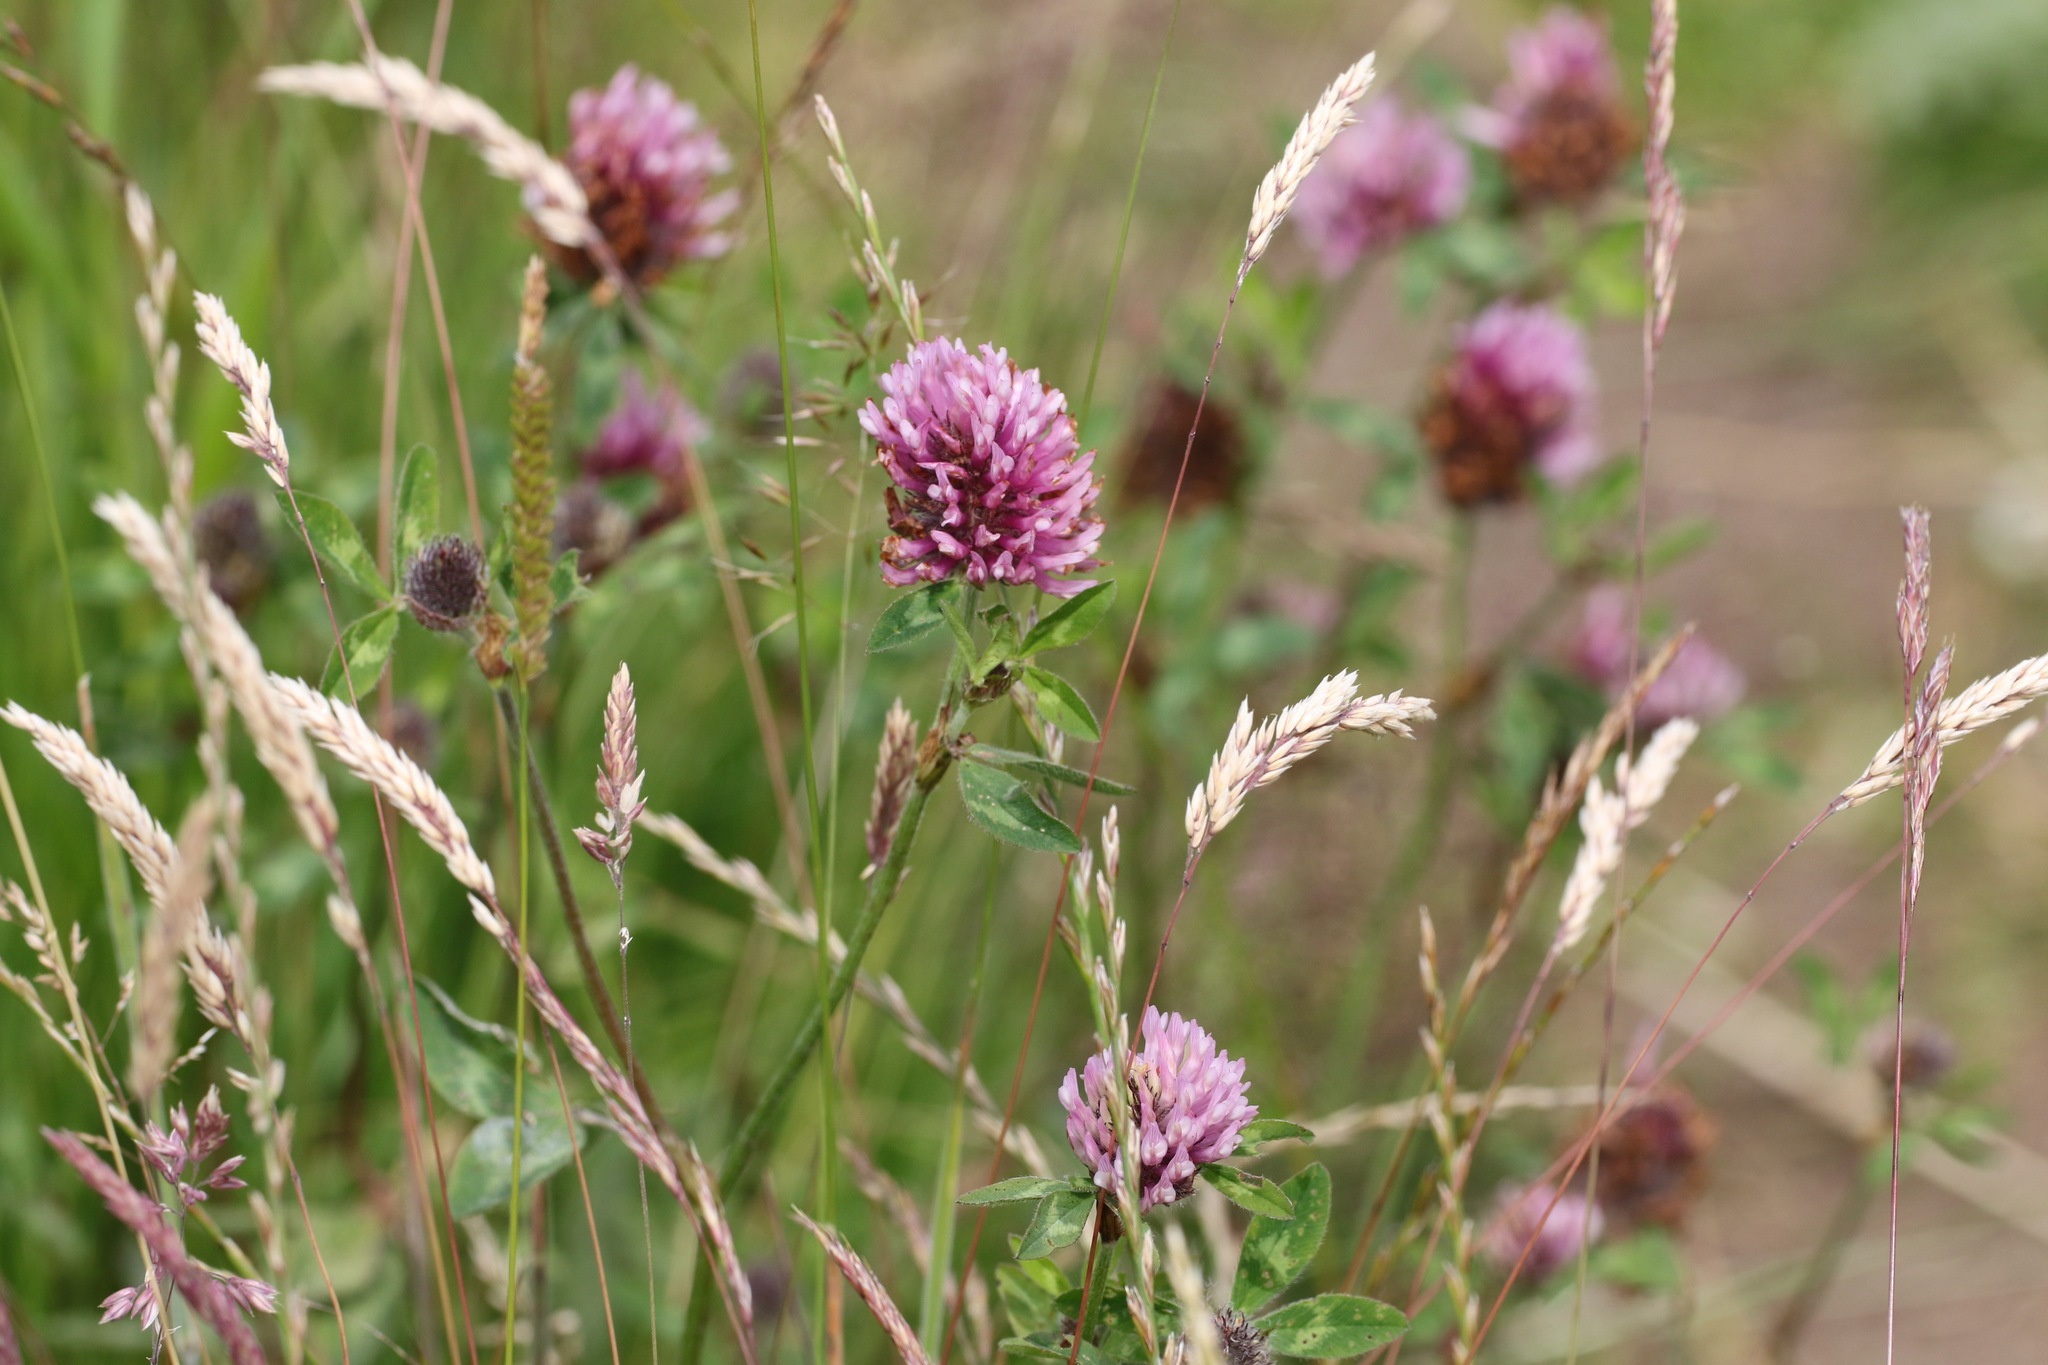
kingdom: Plantae
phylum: Tracheophyta
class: Magnoliopsida
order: Fabales
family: Fabaceae
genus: Trifolium
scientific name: Trifolium pratense
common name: Red clover
